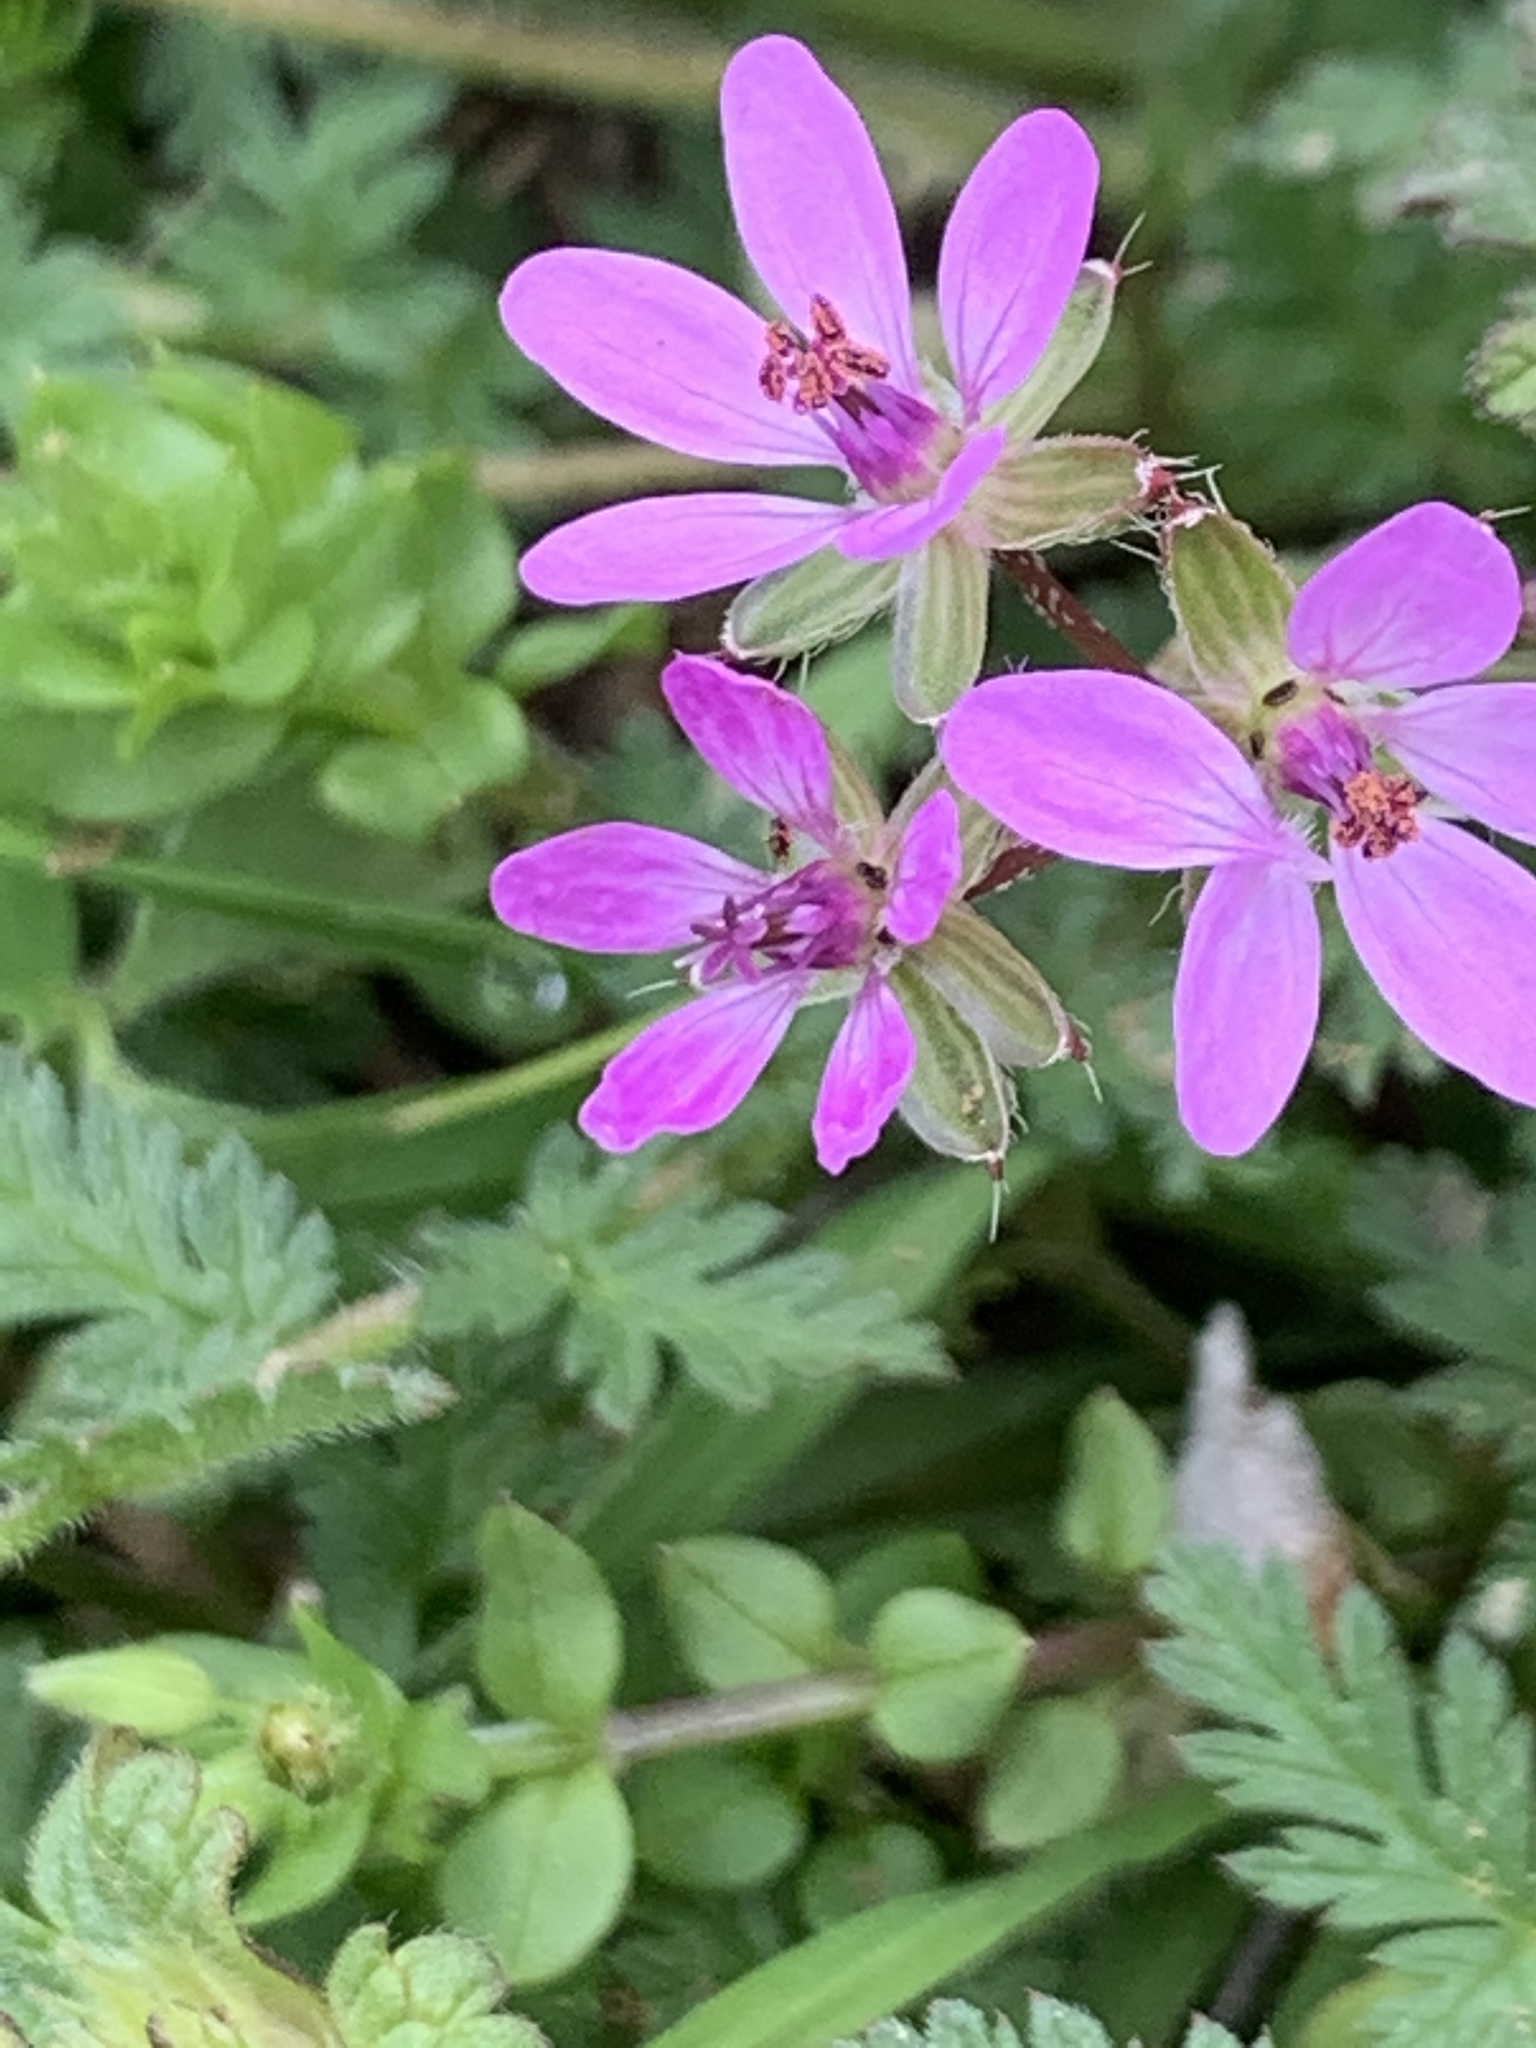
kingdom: Plantae
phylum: Tracheophyta
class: Magnoliopsida
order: Geraniales
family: Geraniaceae
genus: Erodium
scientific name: Erodium cicutarium
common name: Common stork's-bill
